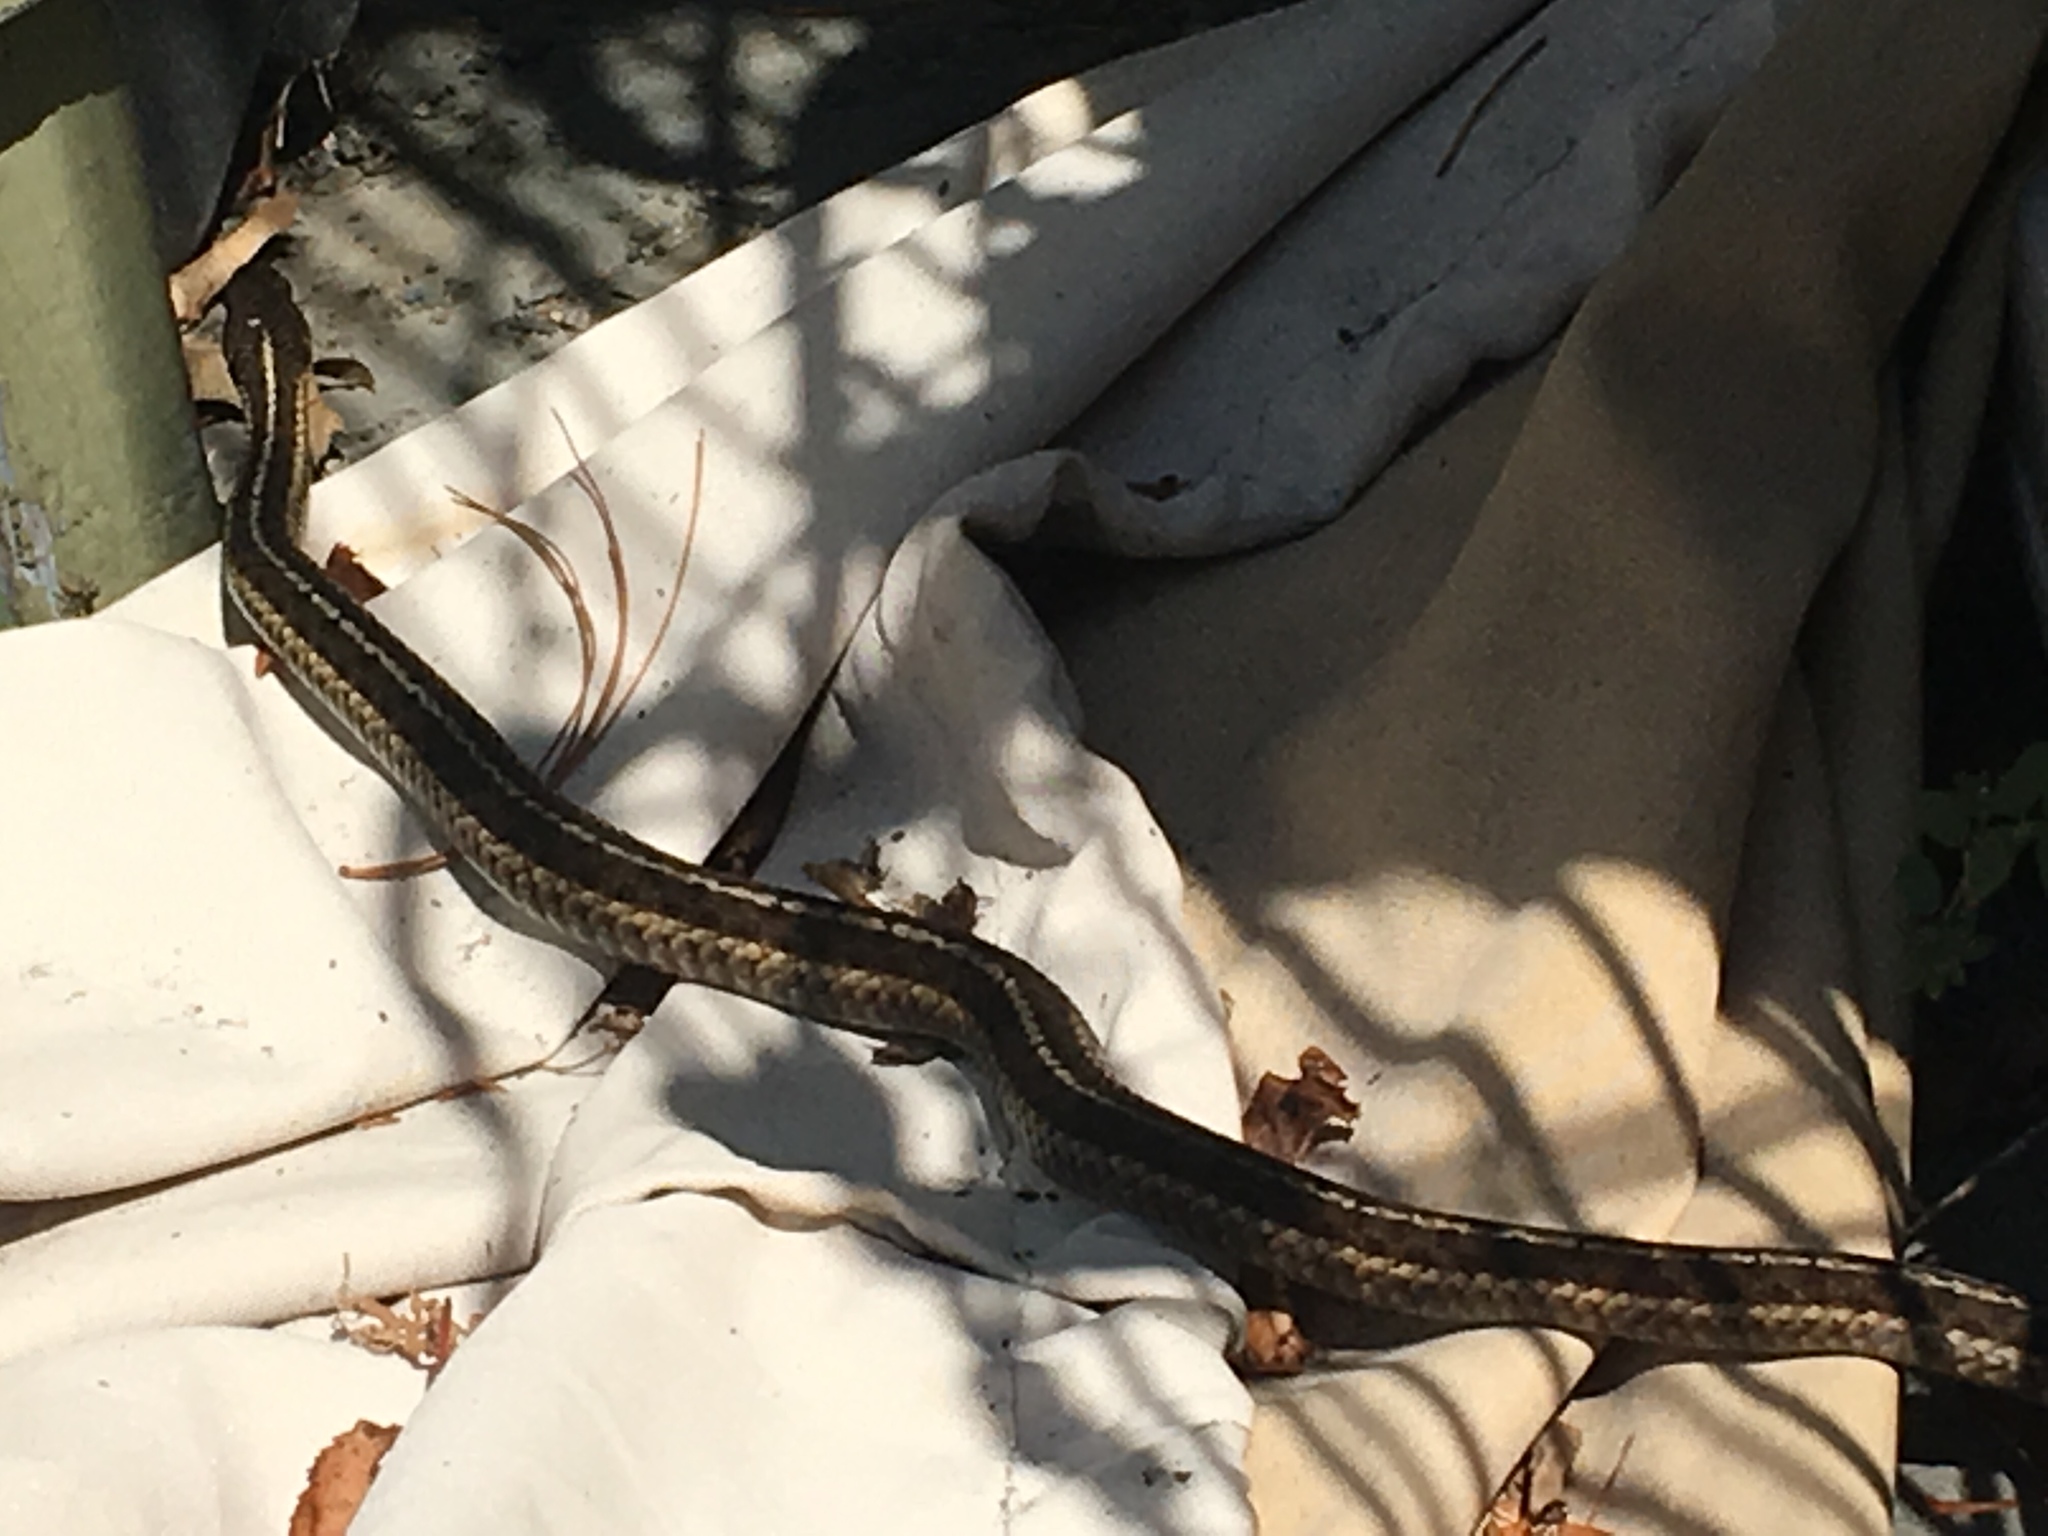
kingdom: Animalia
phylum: Chordata
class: Squamata
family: Colubridae
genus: Thamnophis
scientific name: Thamnophis sirtalis
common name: Common garter snake
